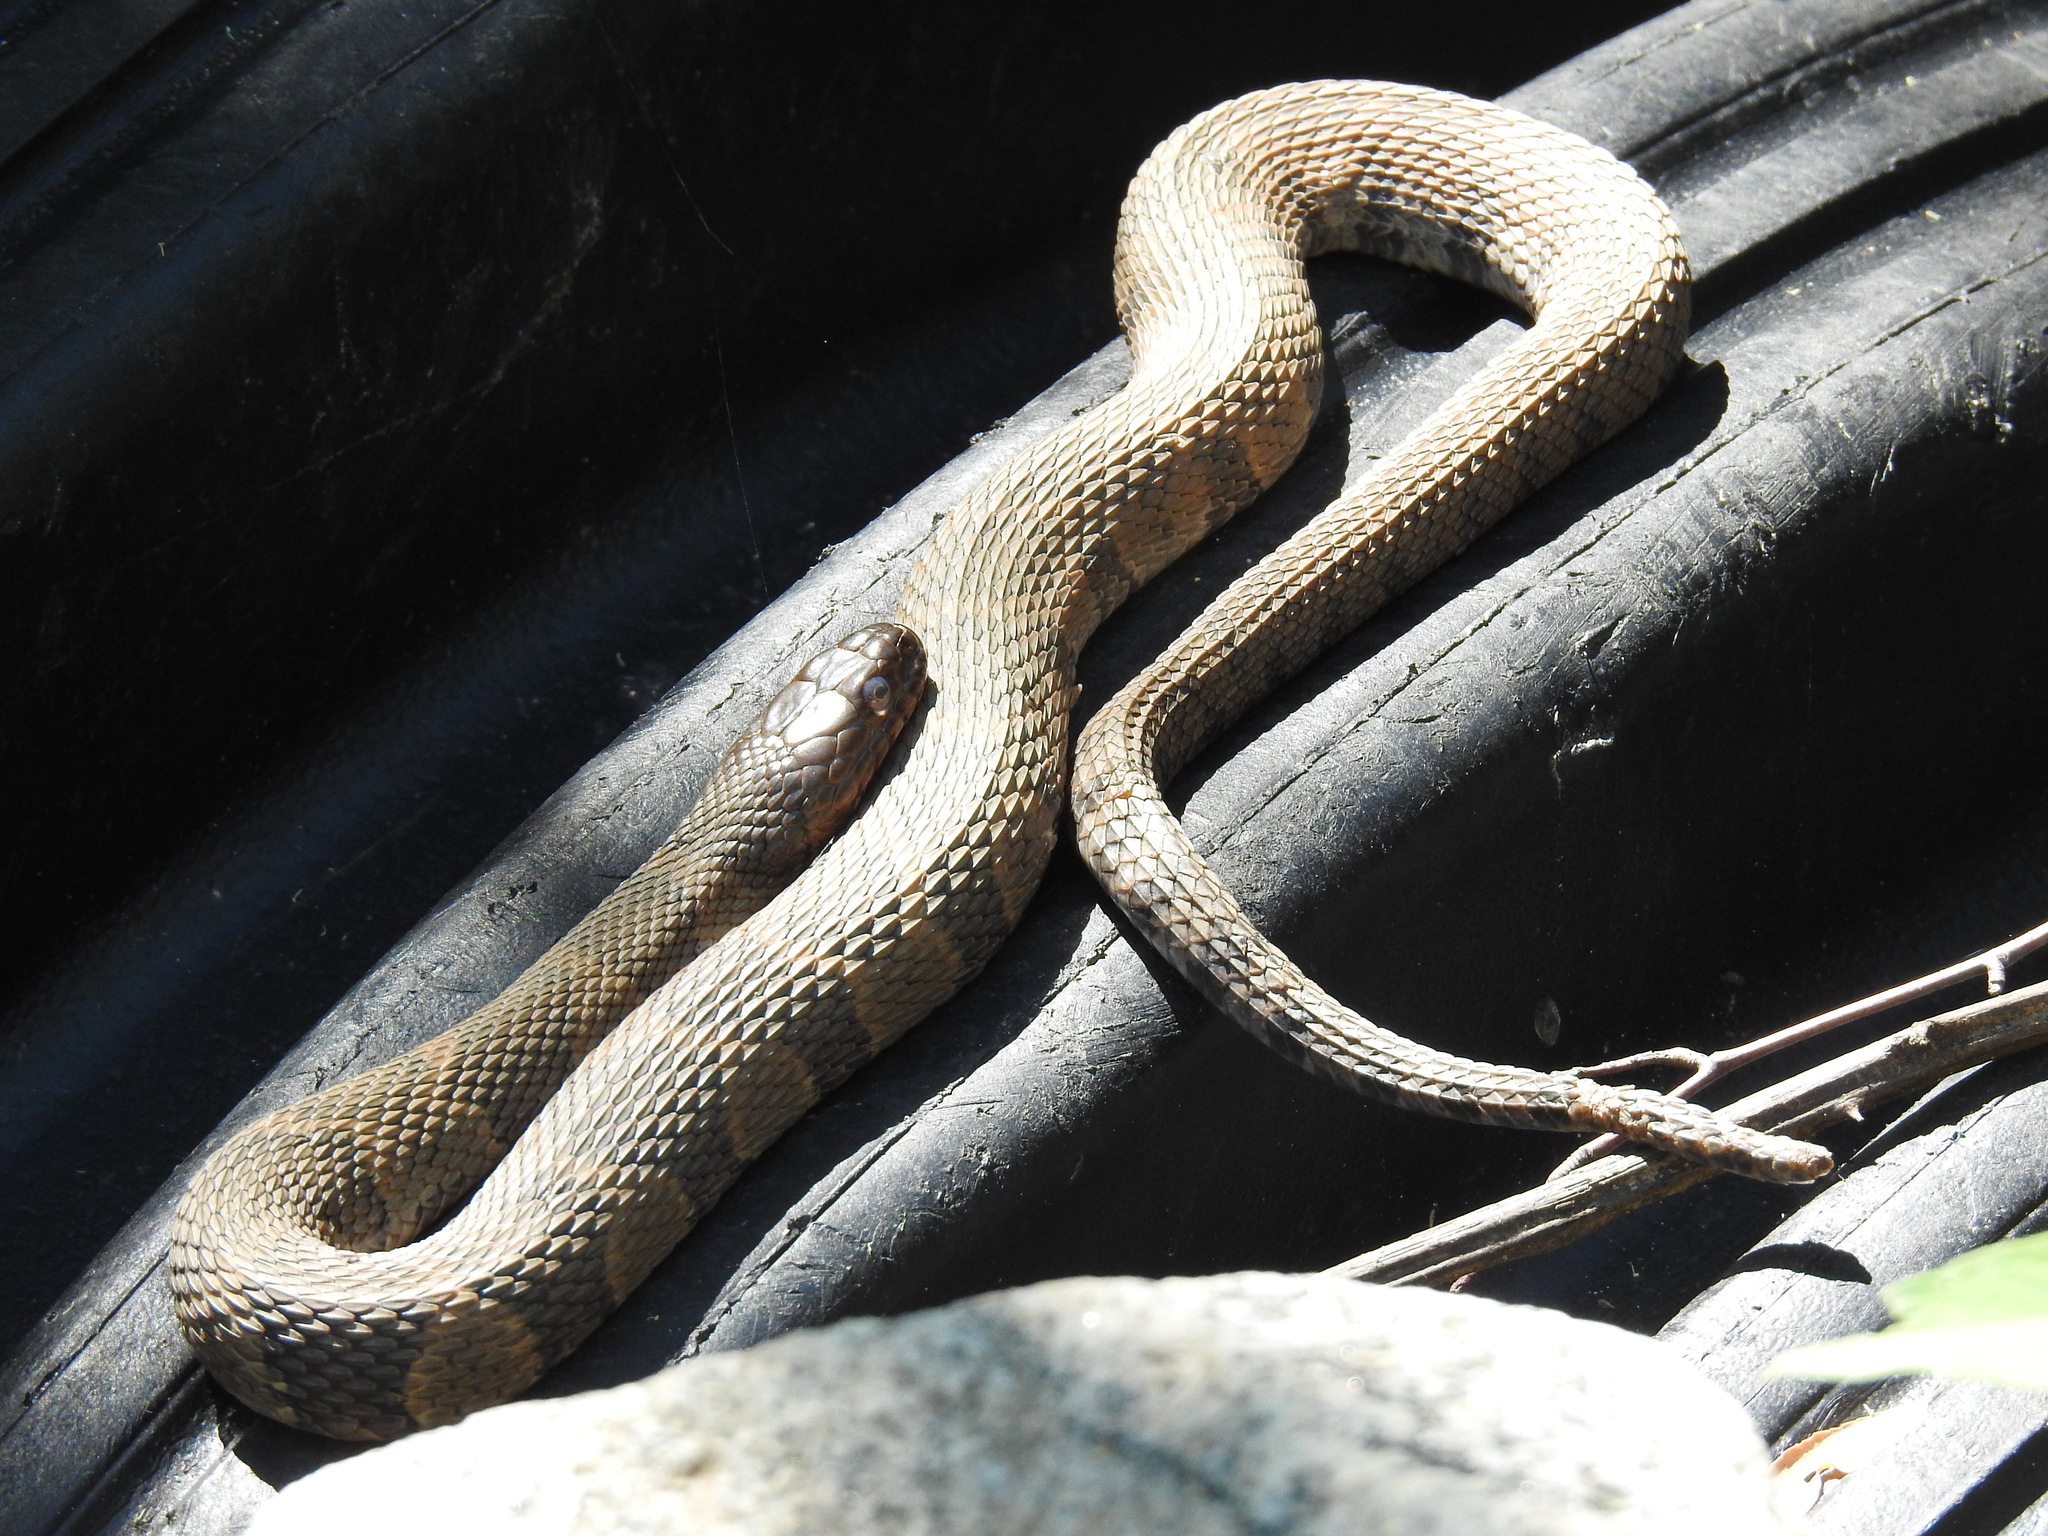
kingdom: Animalia
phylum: Chordata
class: Squamata
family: Colubridae
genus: Nerodia
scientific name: Nerodia sipedon
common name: Northern water snake
